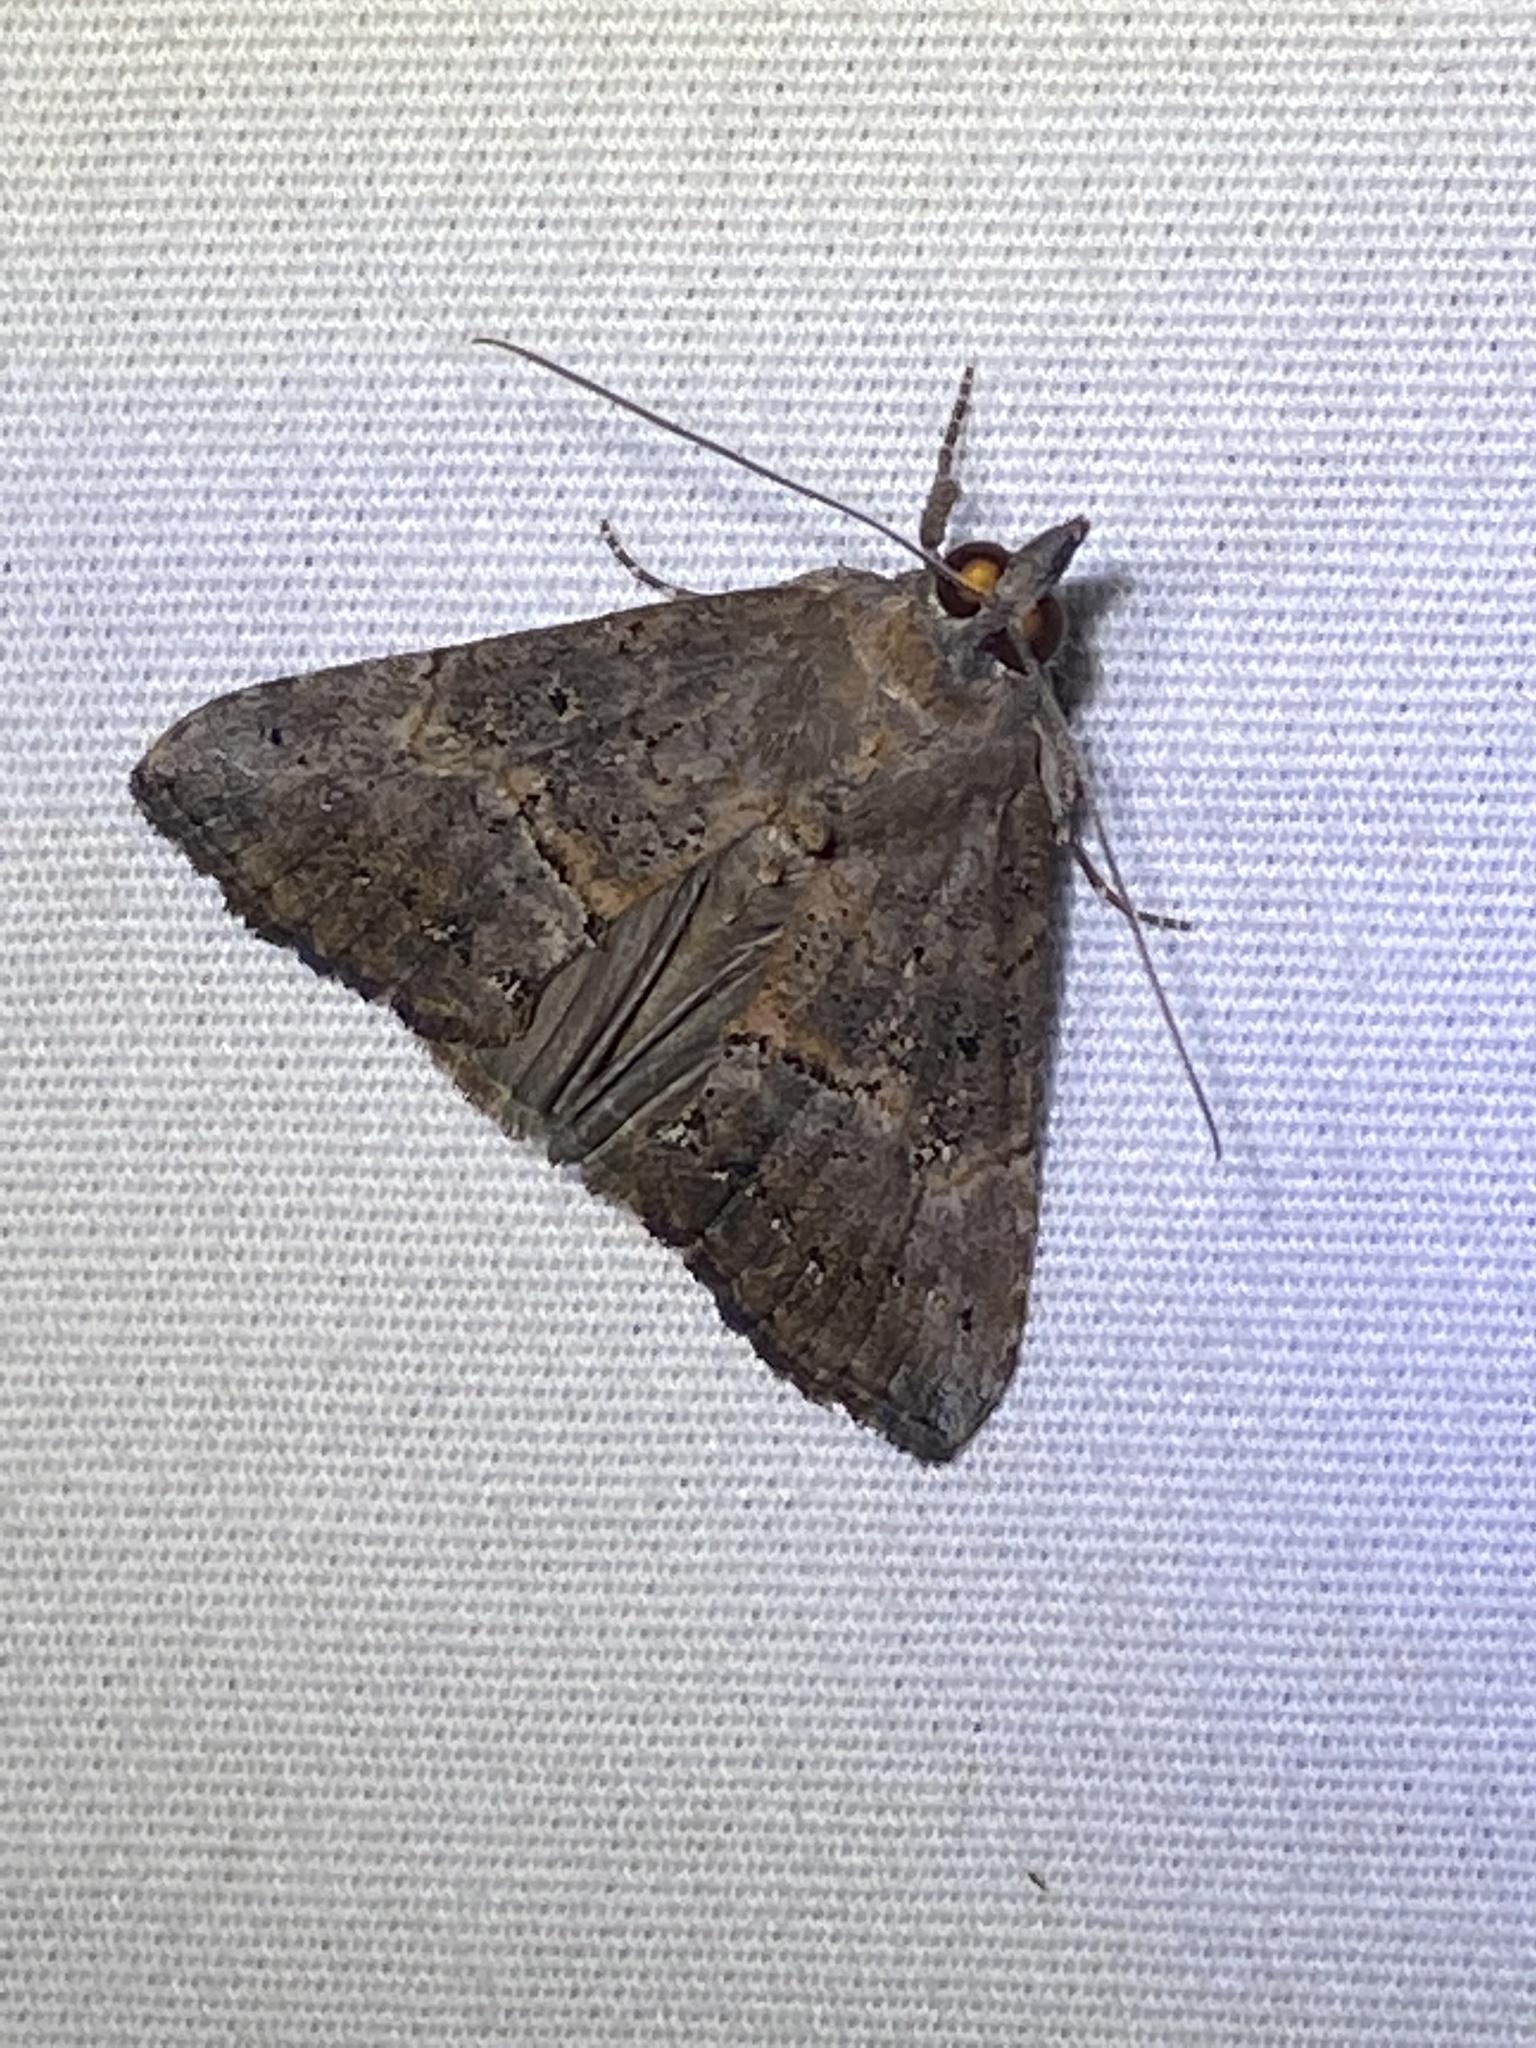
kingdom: Animalia
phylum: Arthropoda
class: Insecta
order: Lepidoptera
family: Erebidae
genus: Hypena
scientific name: Hypena scabra
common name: Green cloverworm
